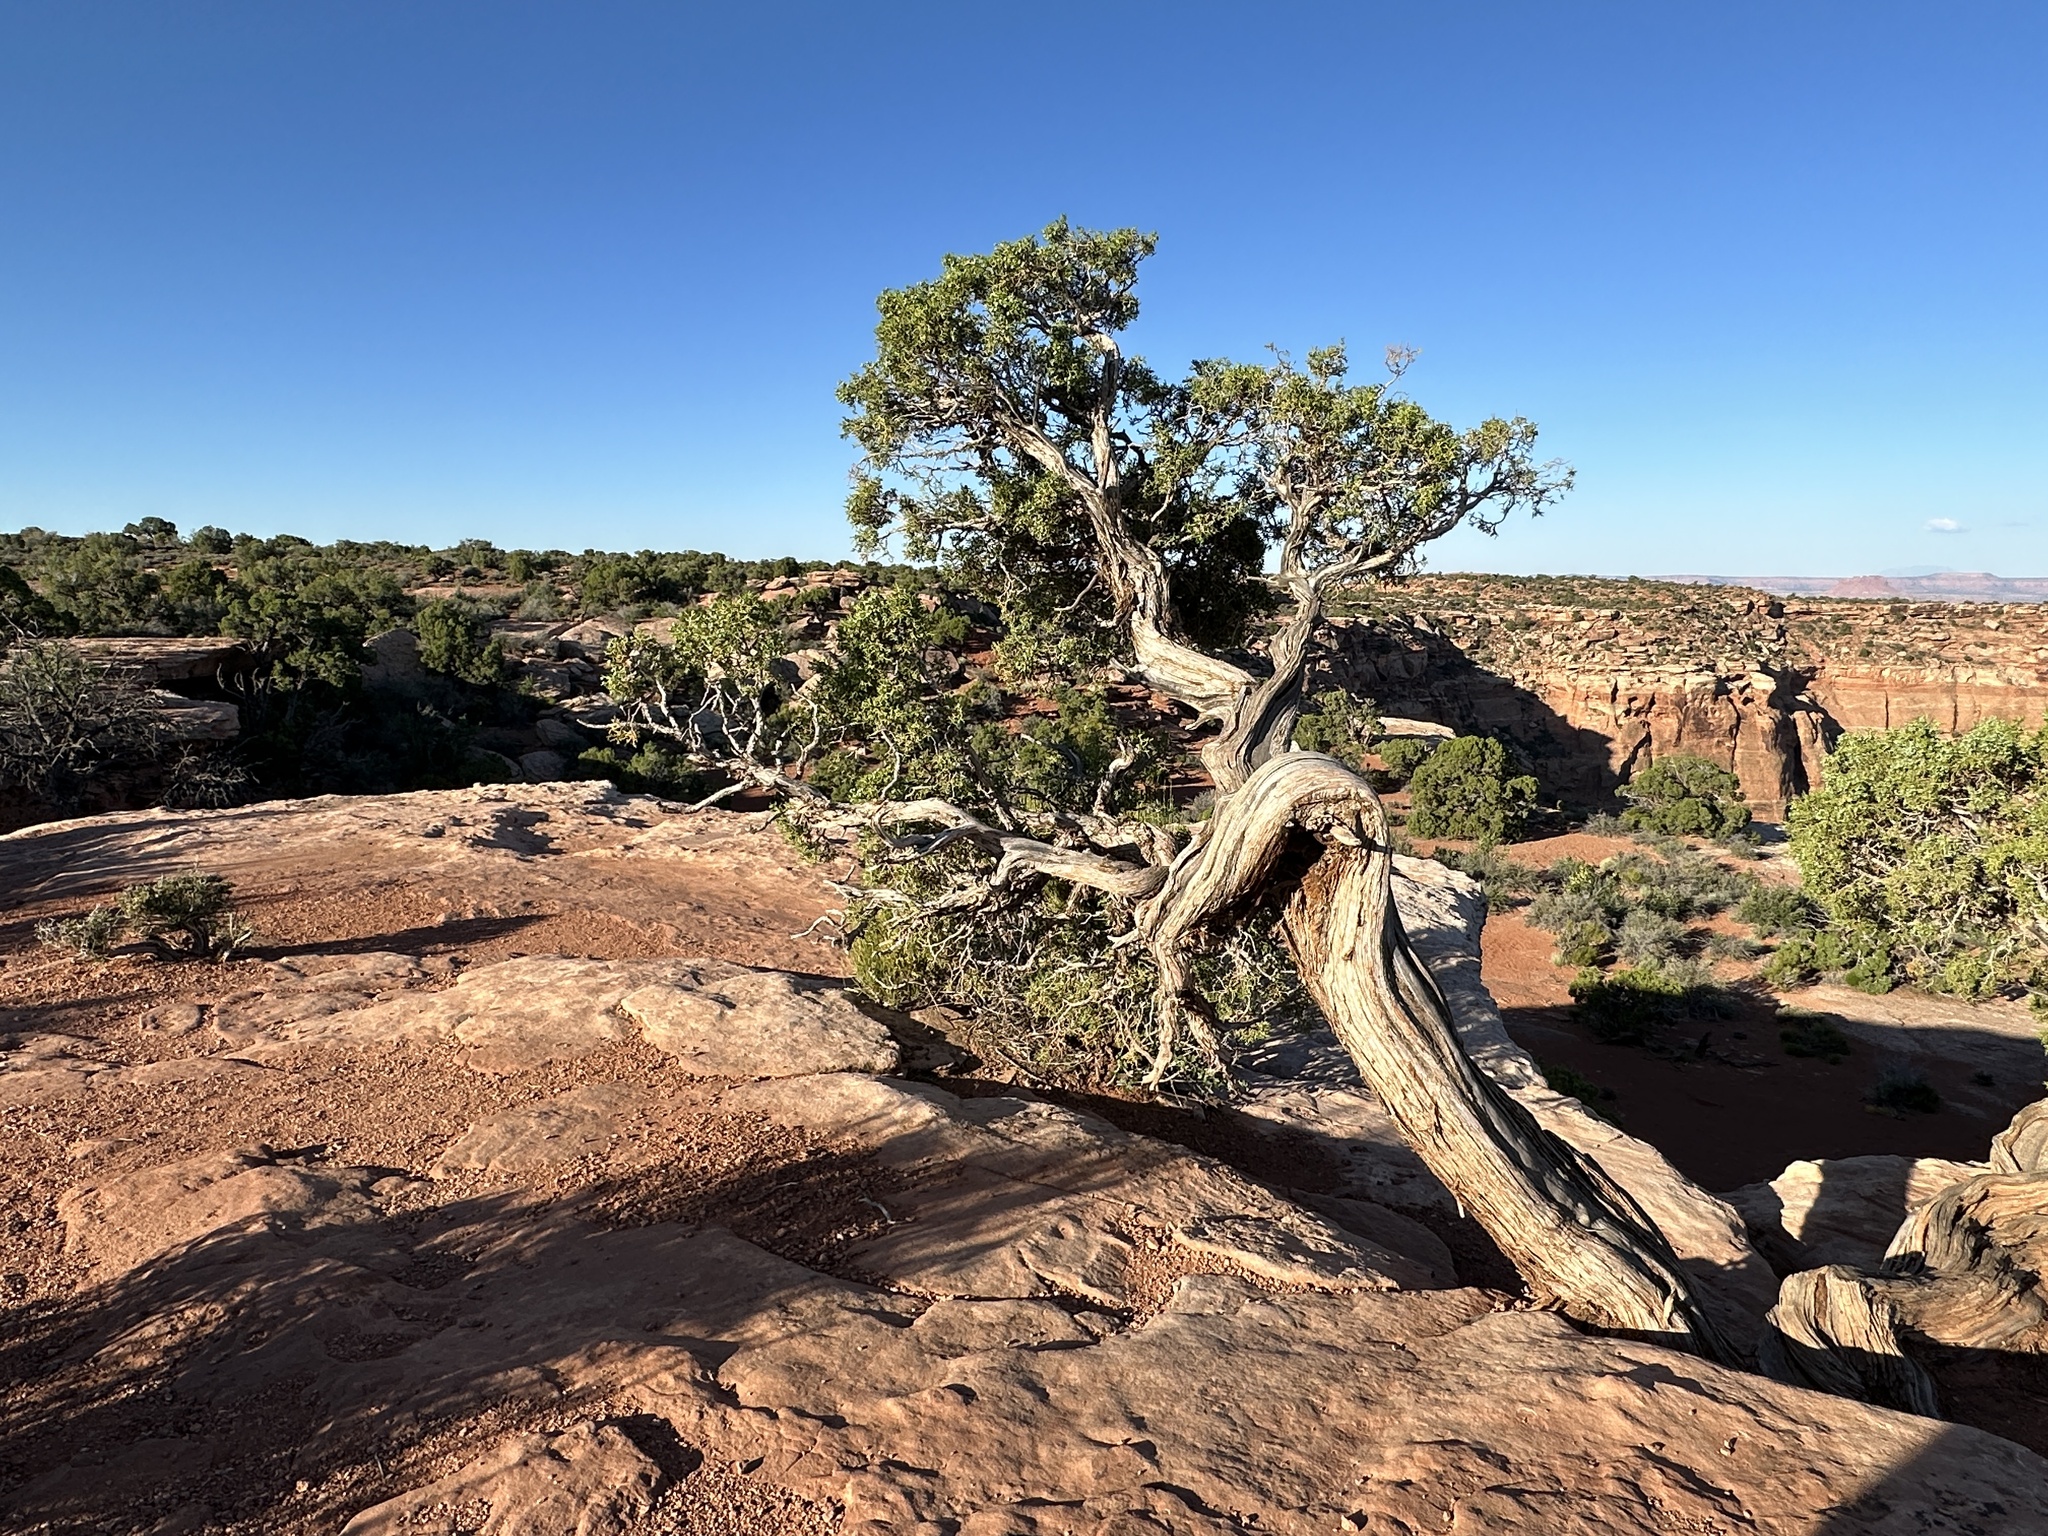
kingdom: Plantae
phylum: Tracheophyta
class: Pinopsida
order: Pinales
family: Cupressaceae
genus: Juniperus
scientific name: Juniperus osteosperma
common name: Utah juniper
